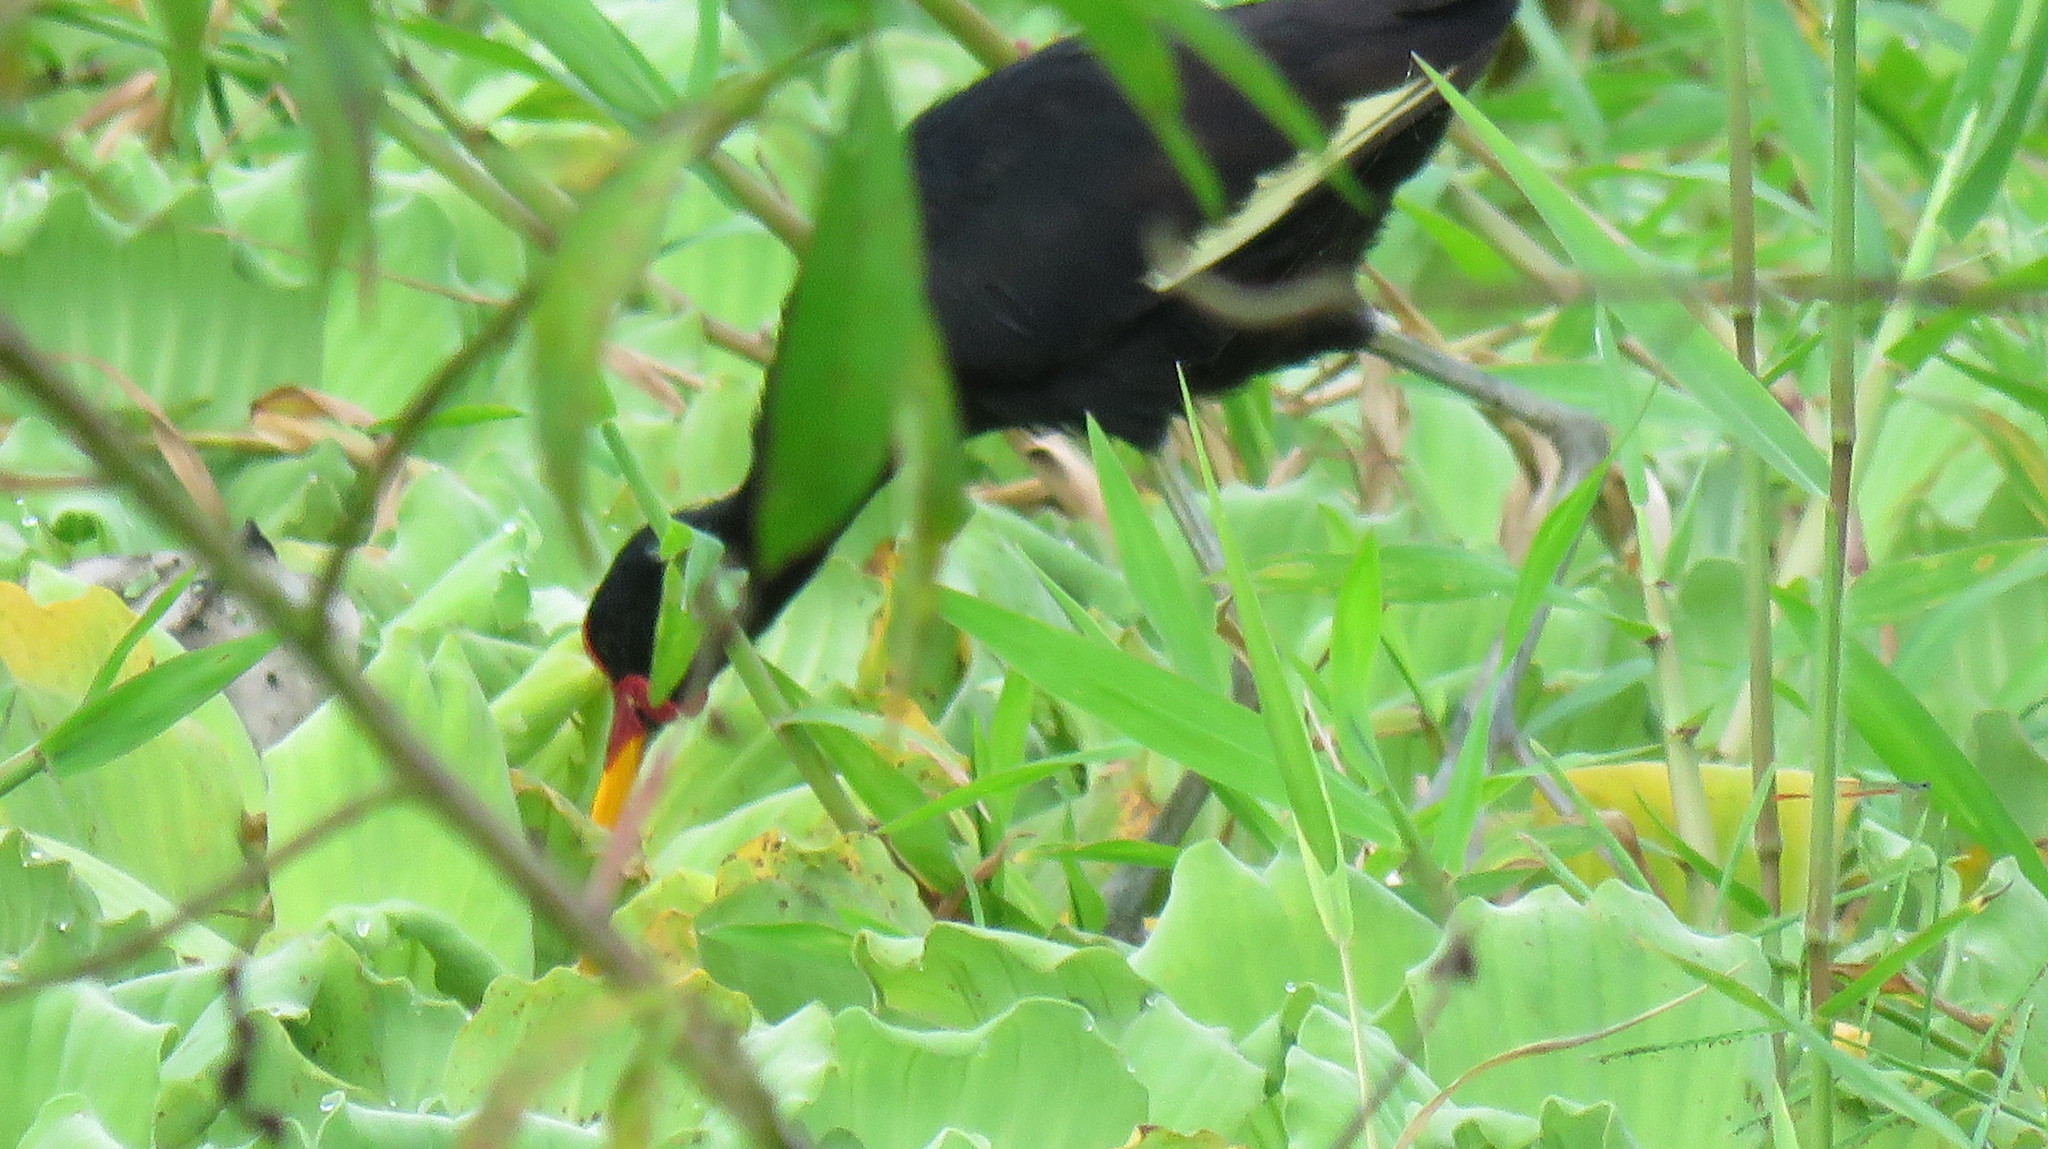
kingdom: Animalia
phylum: Chordata
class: Aves
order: Charadriiformes
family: Jacanidae
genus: Jacana
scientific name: Jacana jacana
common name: Wattled jacana
